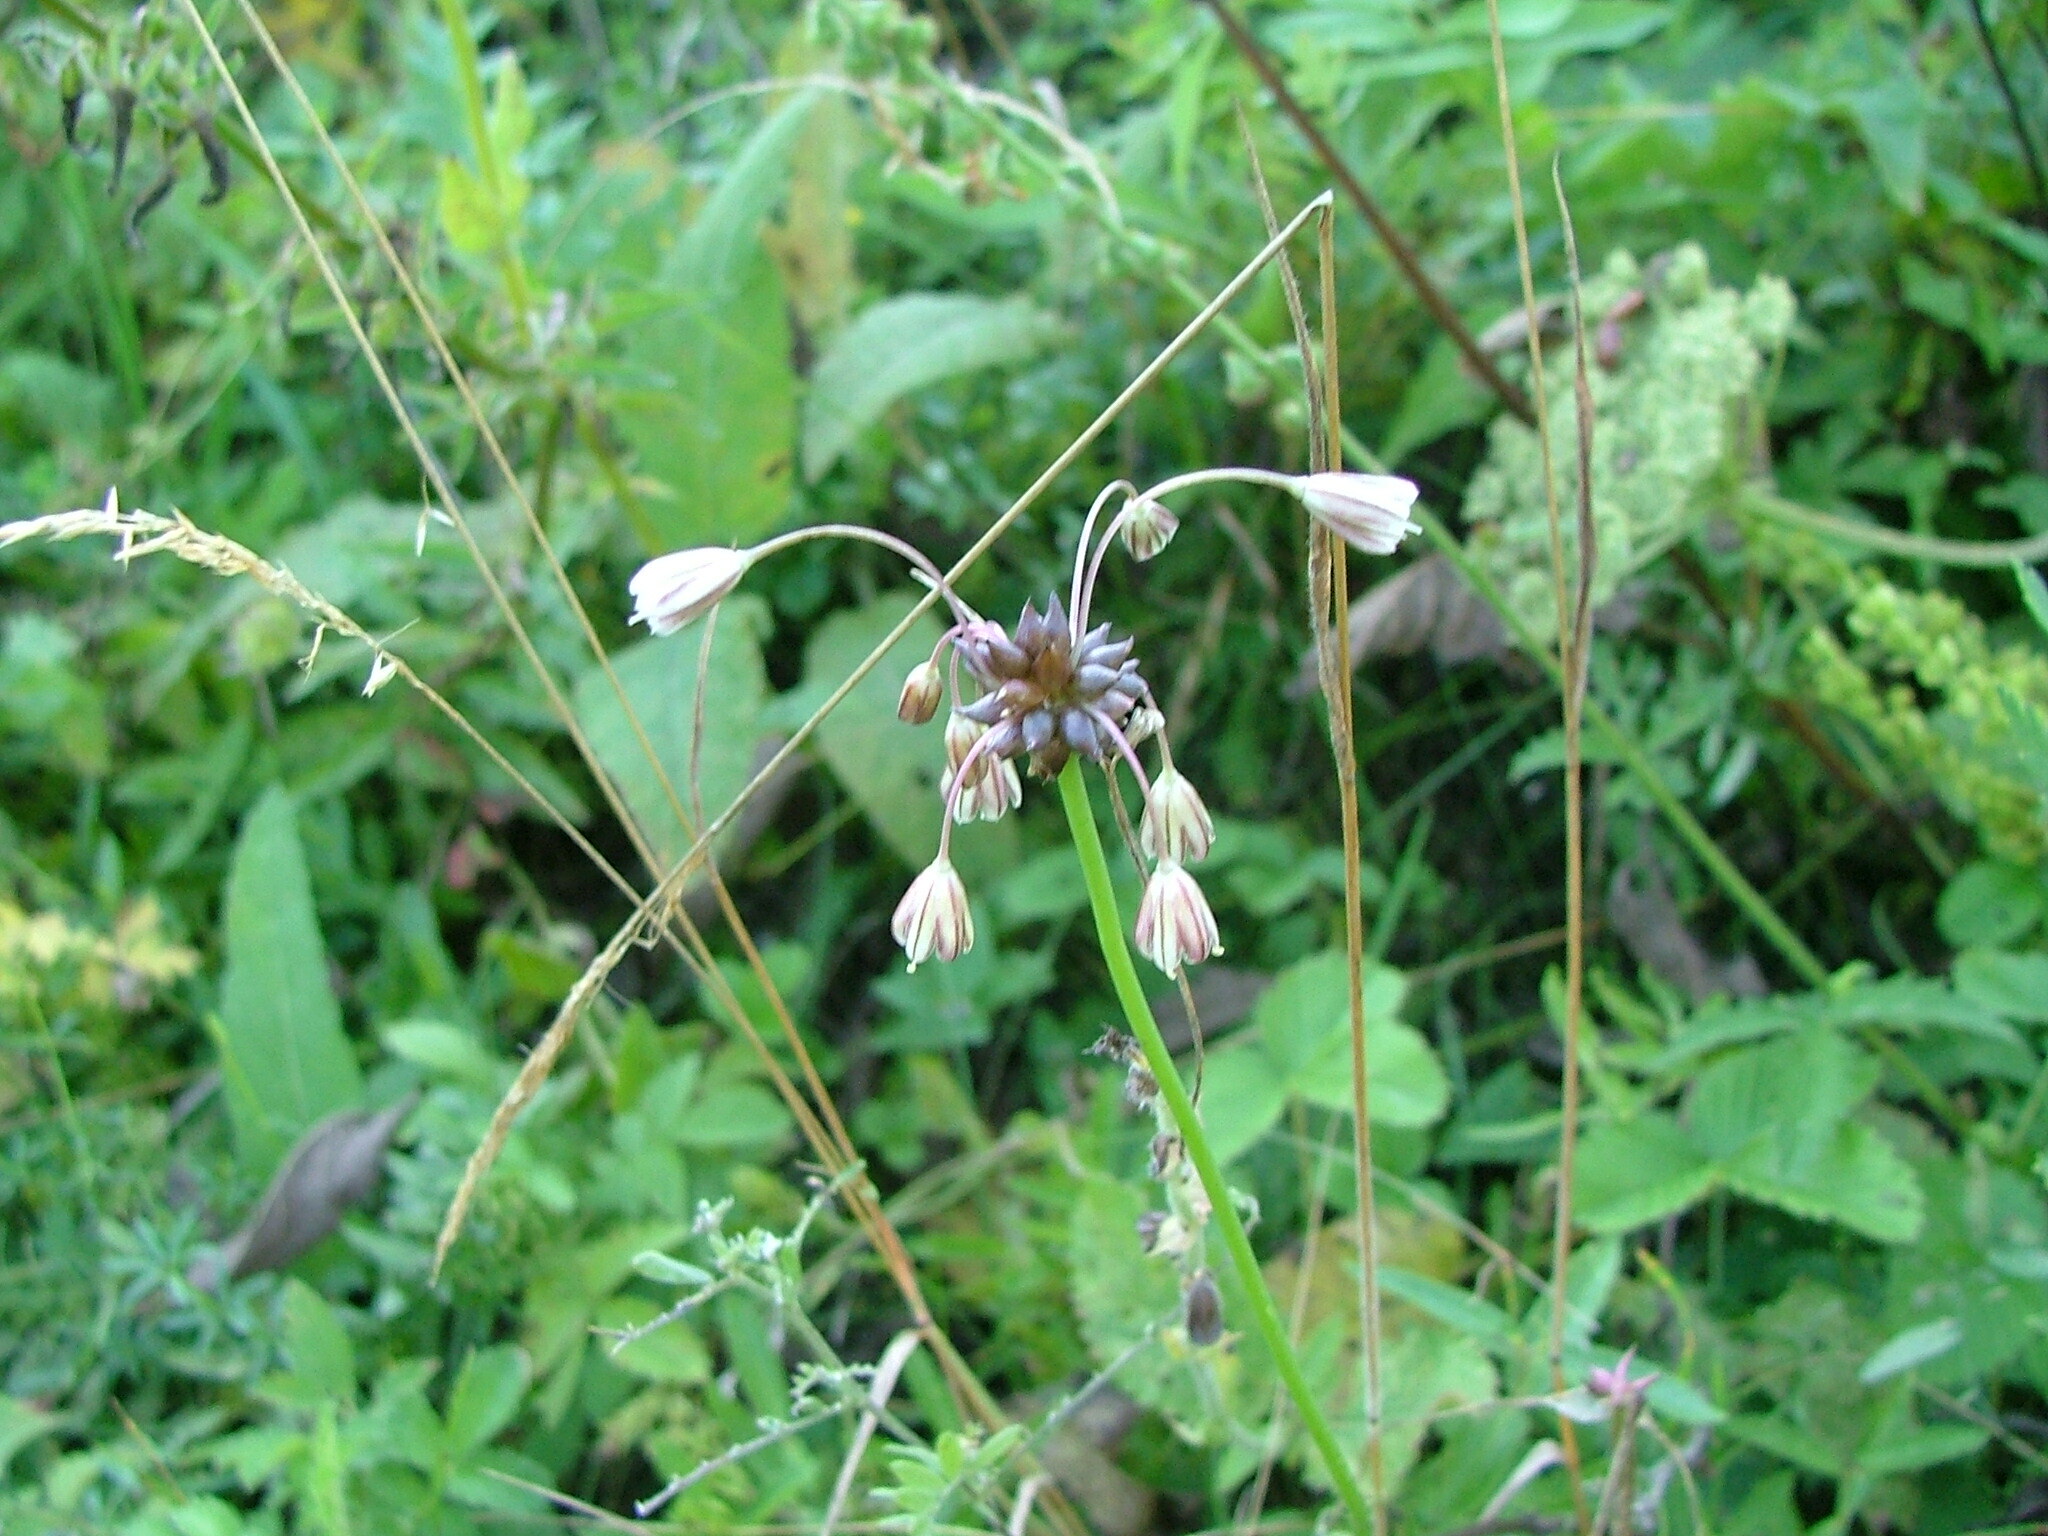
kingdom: Plantae
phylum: Tracheophyta
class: Liliopsida
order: Asparagales
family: Amaryllidaceae
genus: Allium
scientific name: Allium oleraceum
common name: Field garlic
